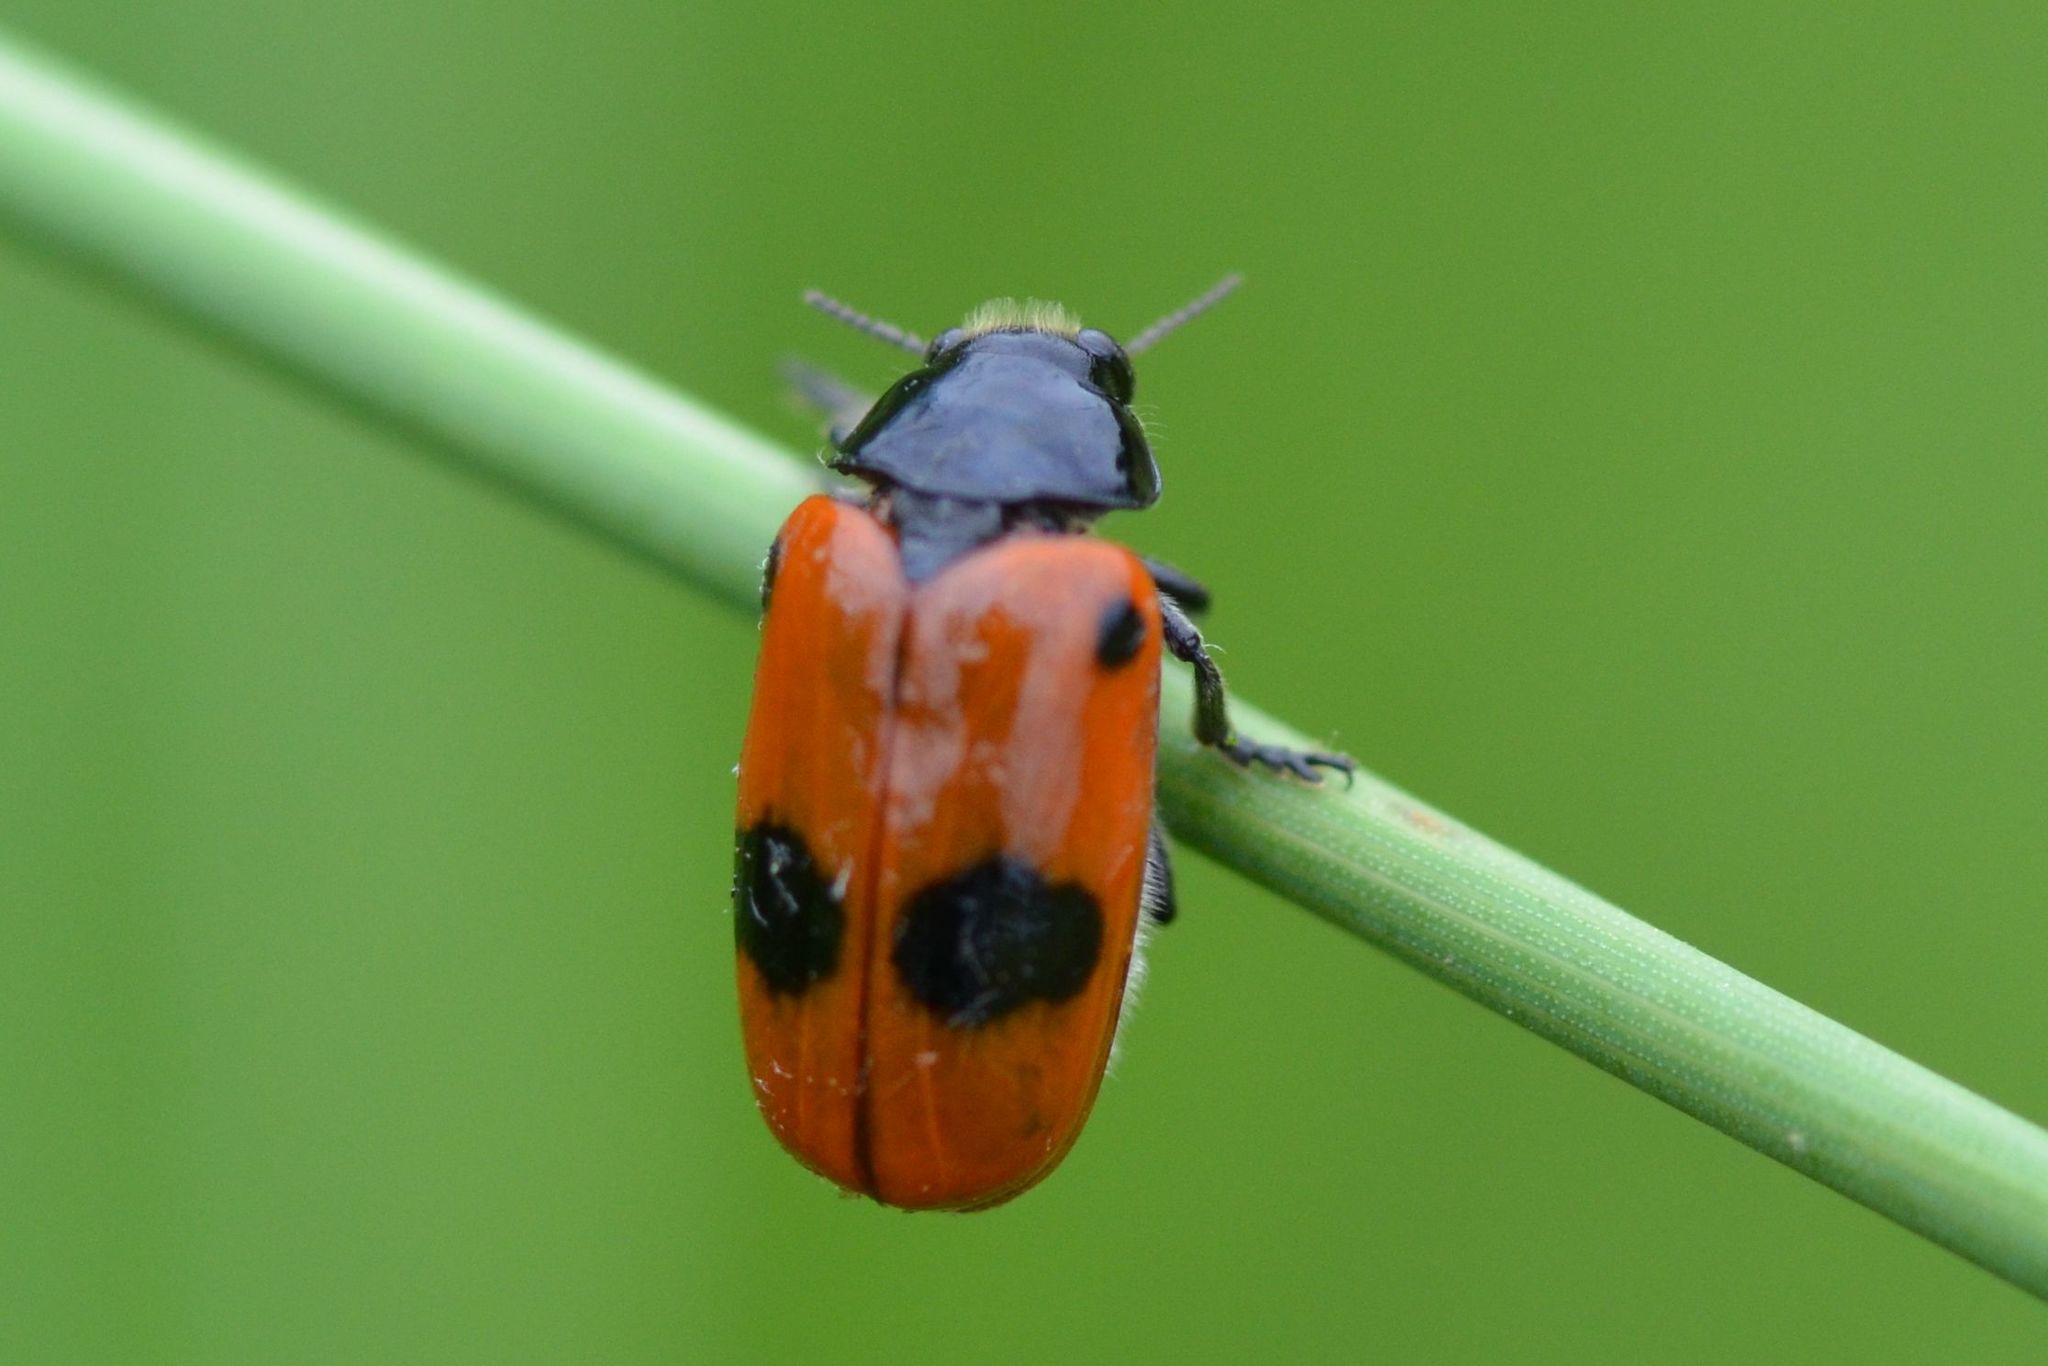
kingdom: Animalia
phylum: Arthropoda
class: Insecta
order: Coleoptera
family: Chrysomelidae
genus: Clytra
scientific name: Clytra laeviuscula
